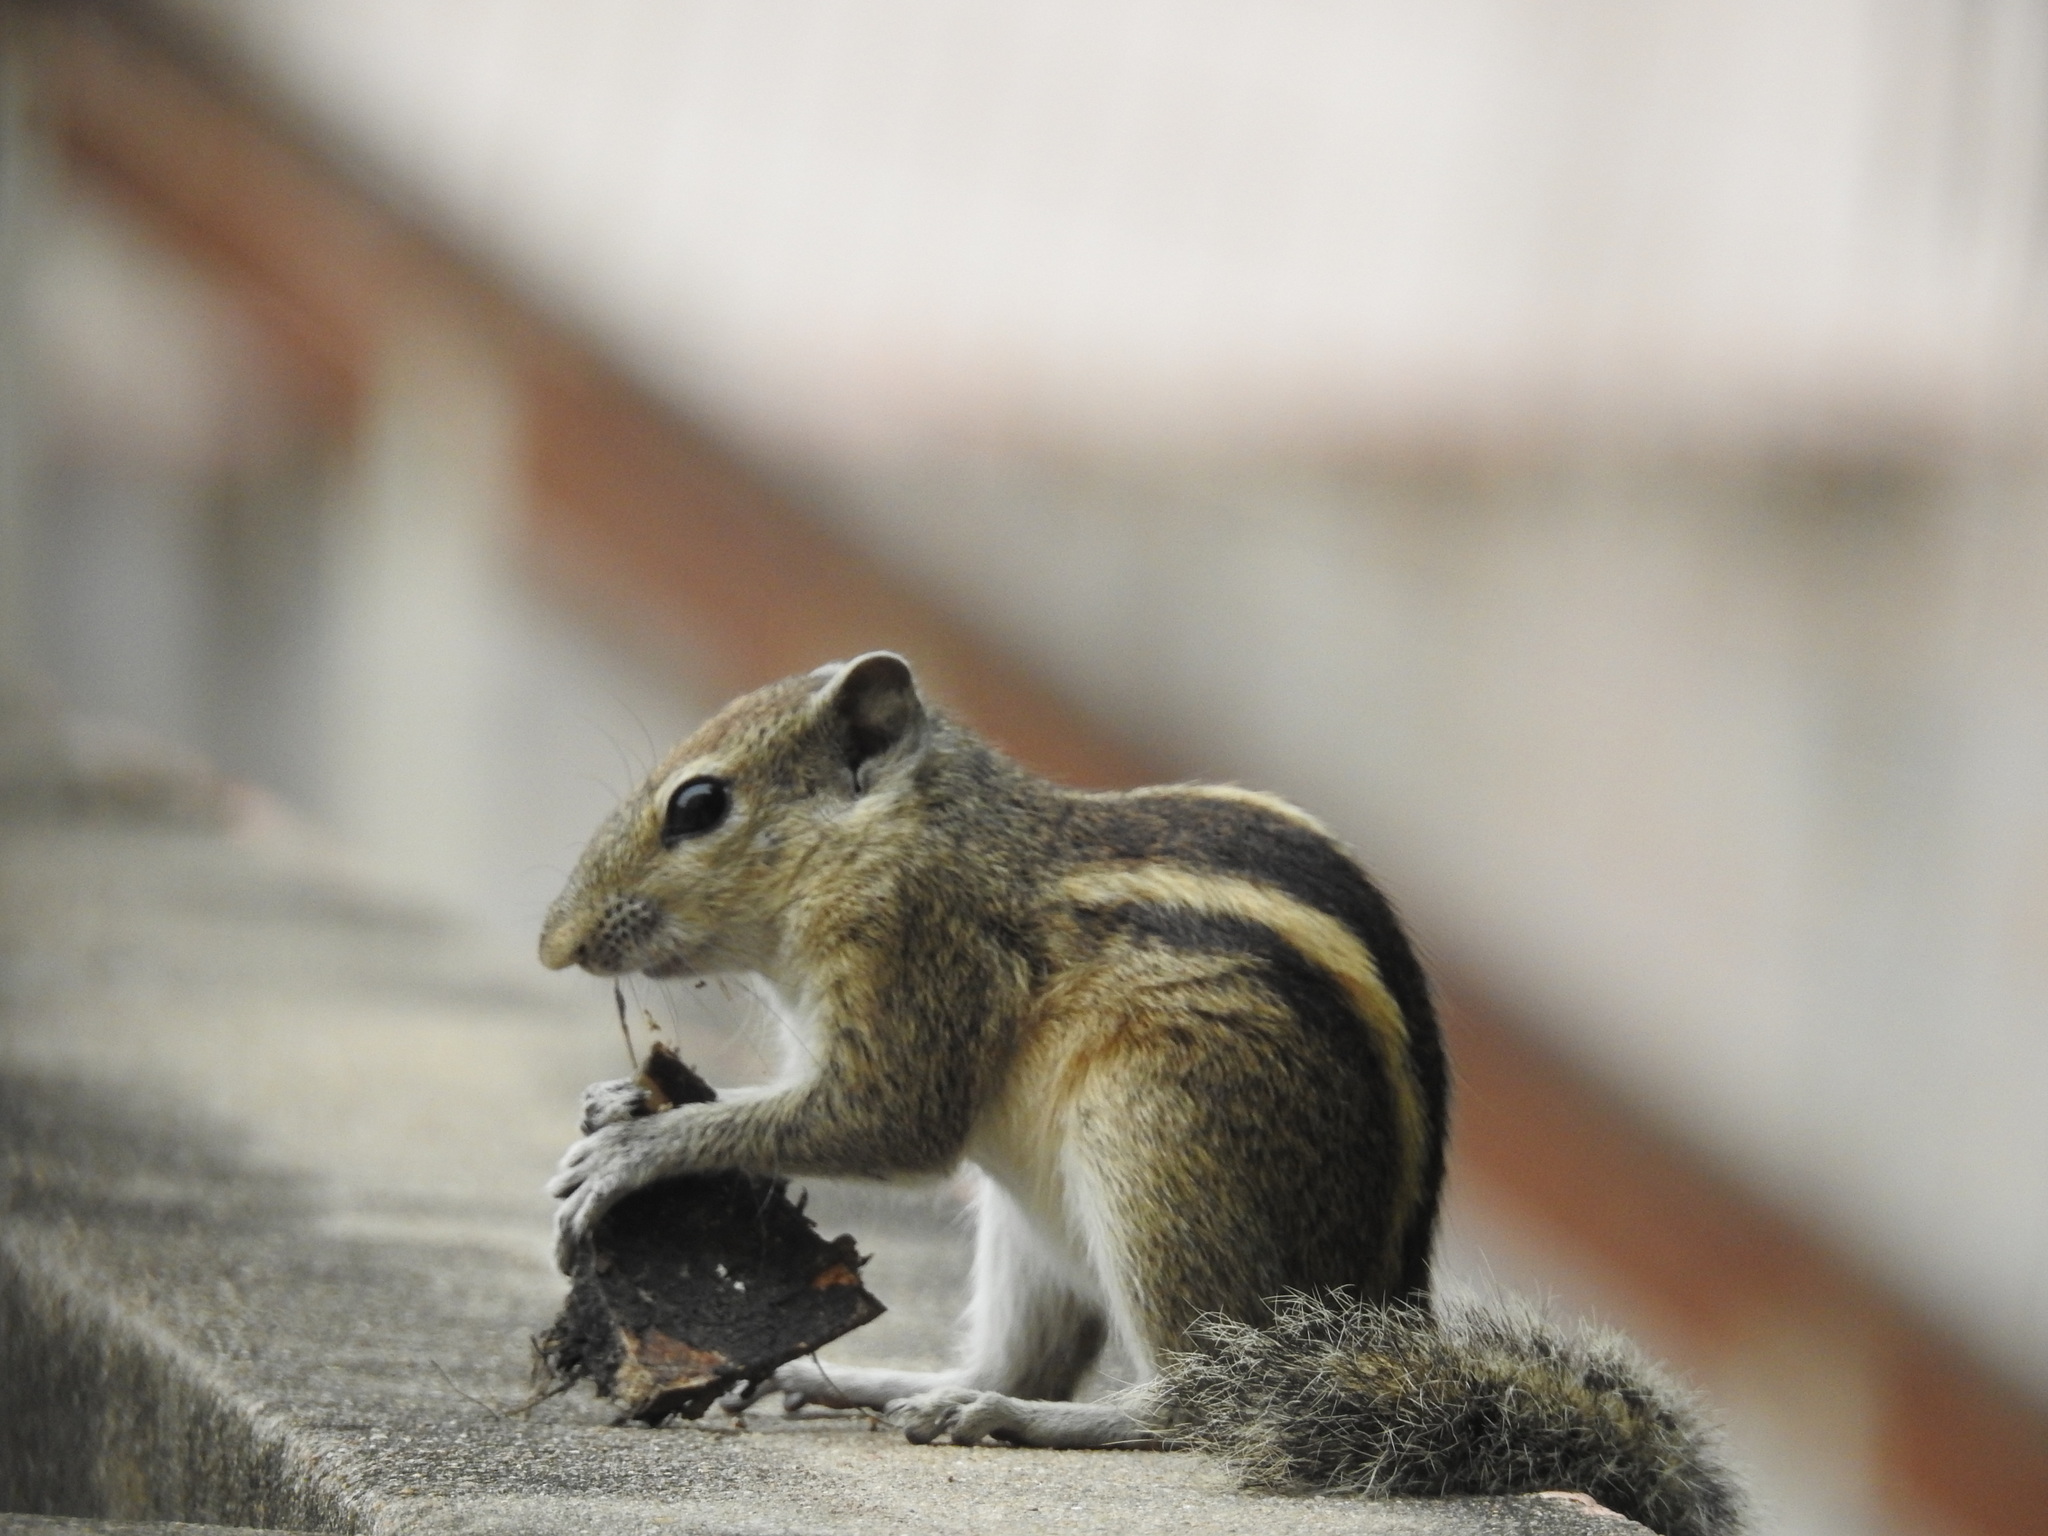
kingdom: Animalia
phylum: Chordata
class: Mammalia
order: Rodentia
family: Sciuridae
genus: Funambulus
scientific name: Funambulus palmarum
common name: Indian palm squirrel
